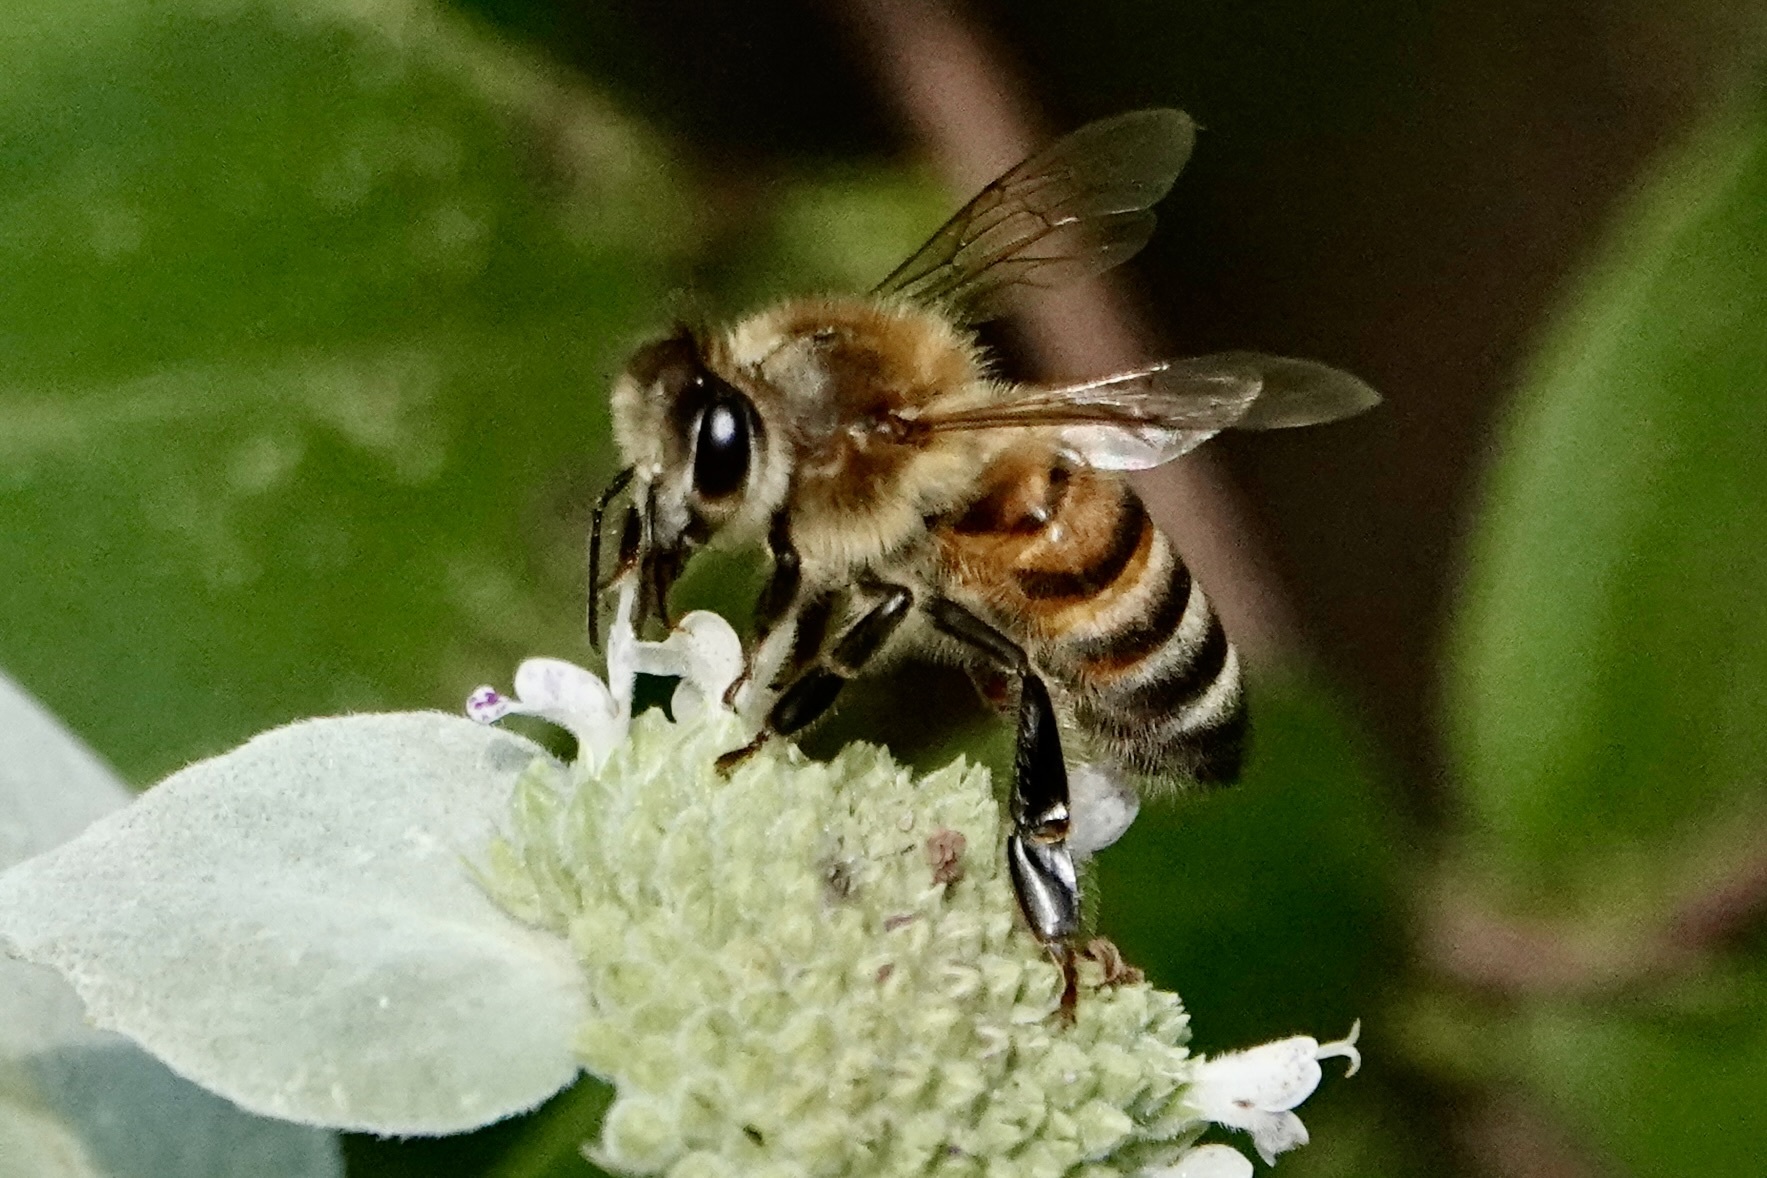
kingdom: Animalia
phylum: Arthropoda
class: Insecta
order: Hymenoptera
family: Apidae
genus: Apis
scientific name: Apis mellifera
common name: Honey bee
